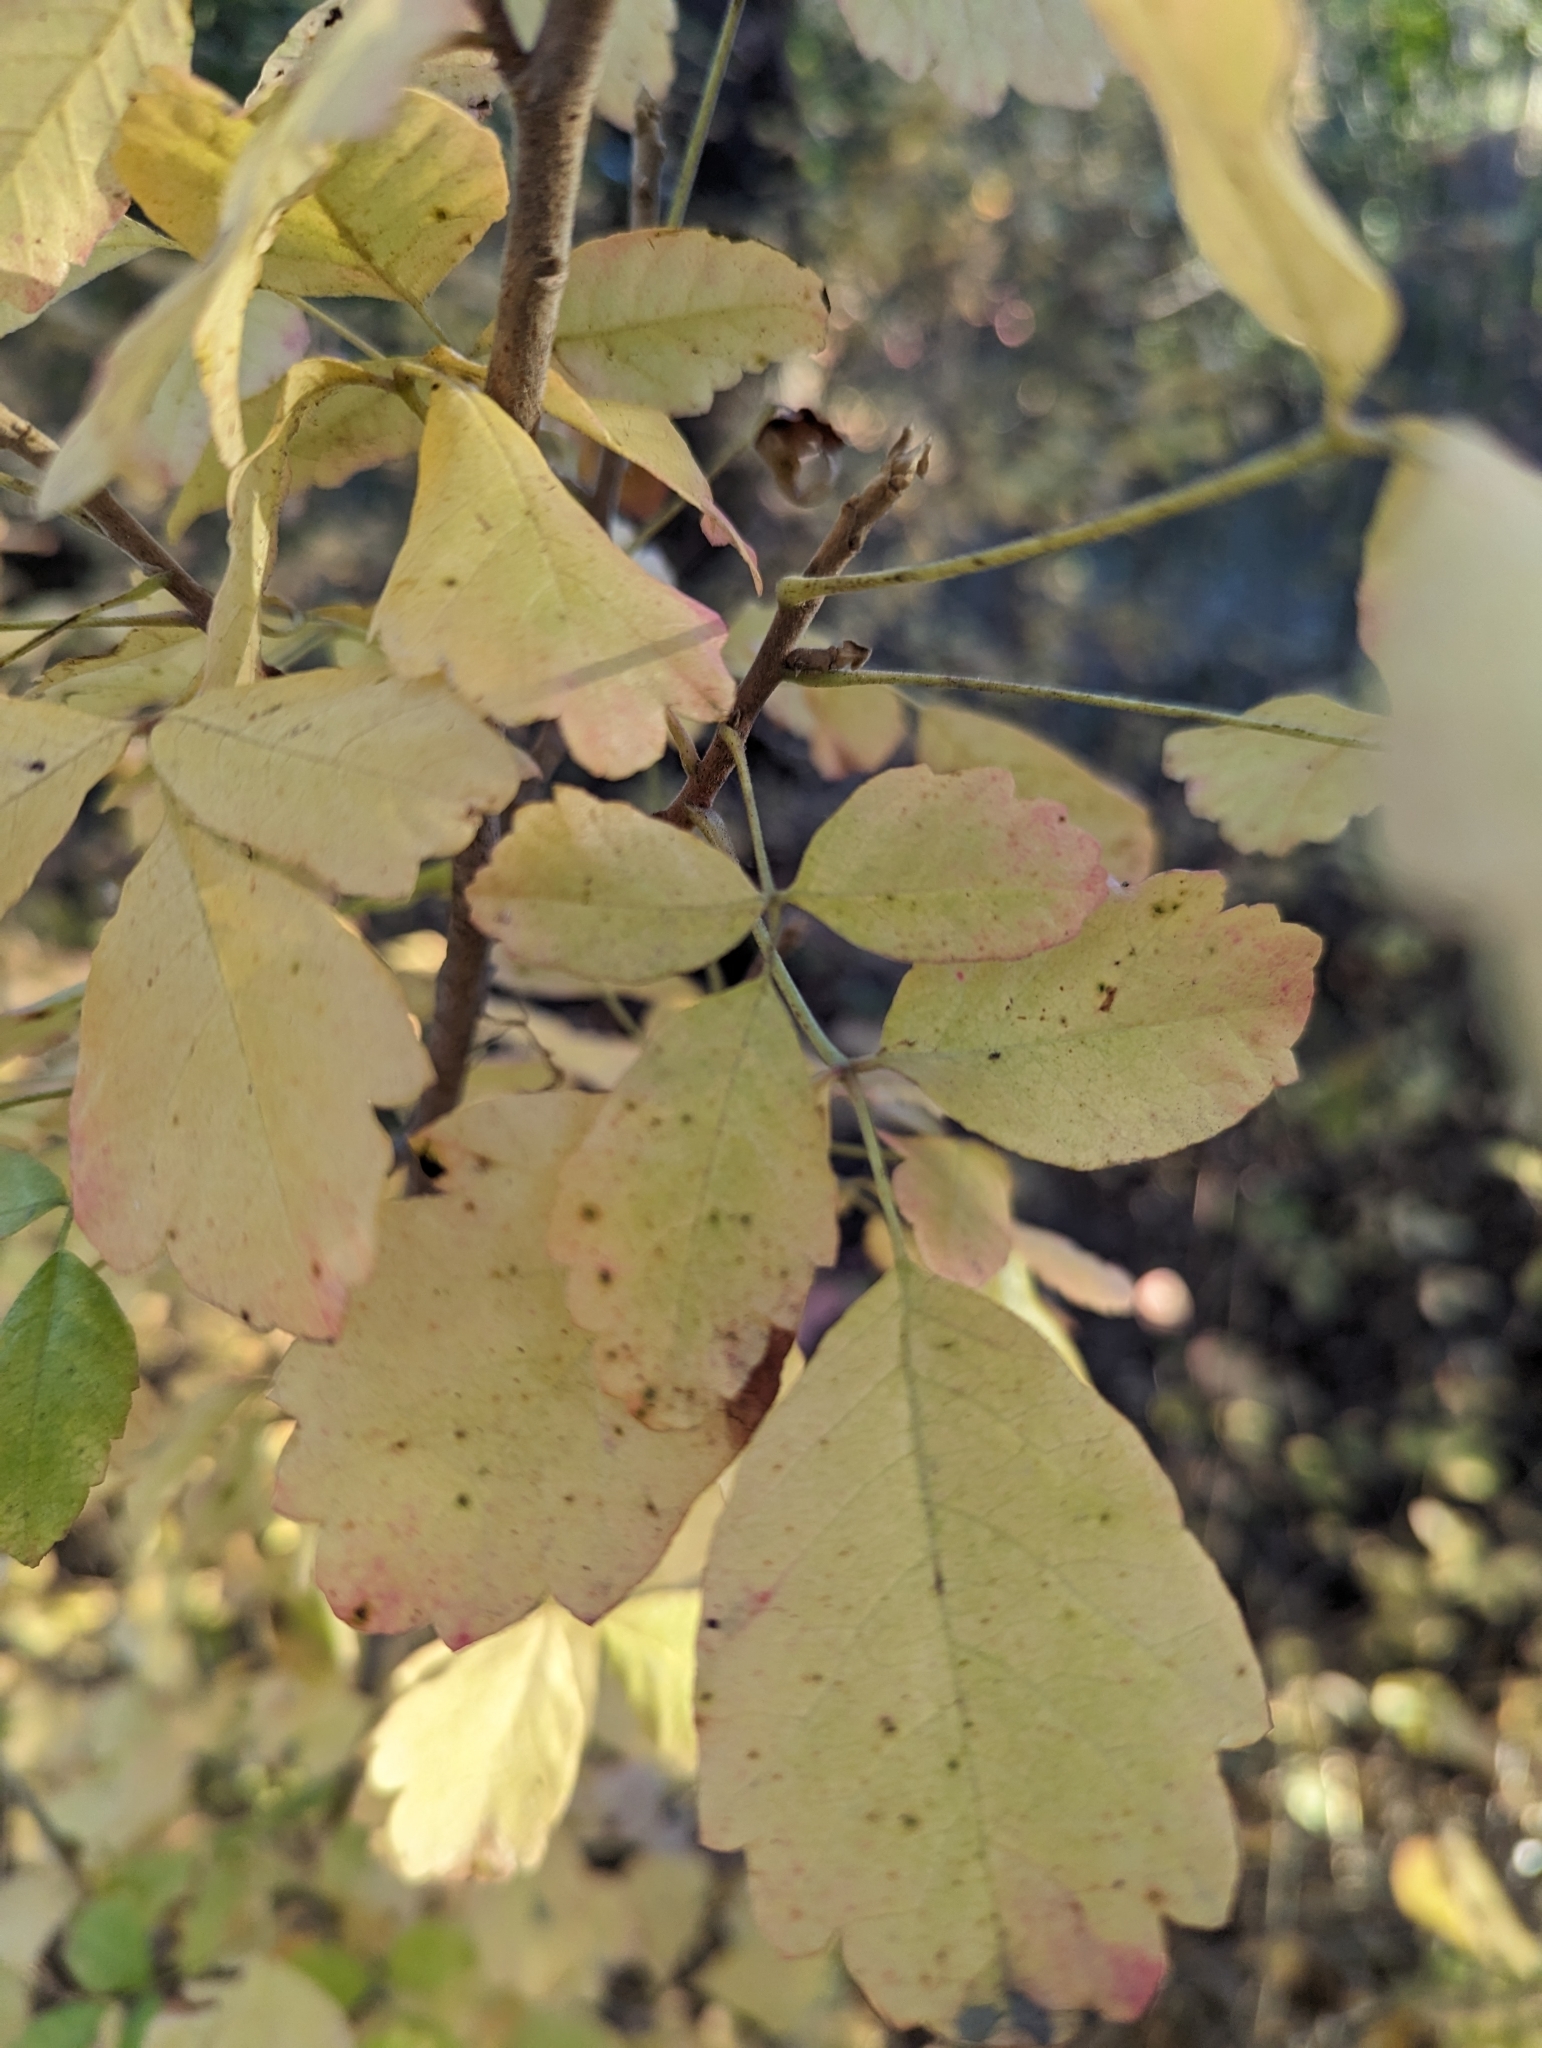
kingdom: Plantae
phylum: Tracheophyta
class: Magnoliopsida
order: Sapindales
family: Anacardiaceae
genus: Toxicodendron
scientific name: Toxicodendron diversilobum
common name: Pacific poison-oak
